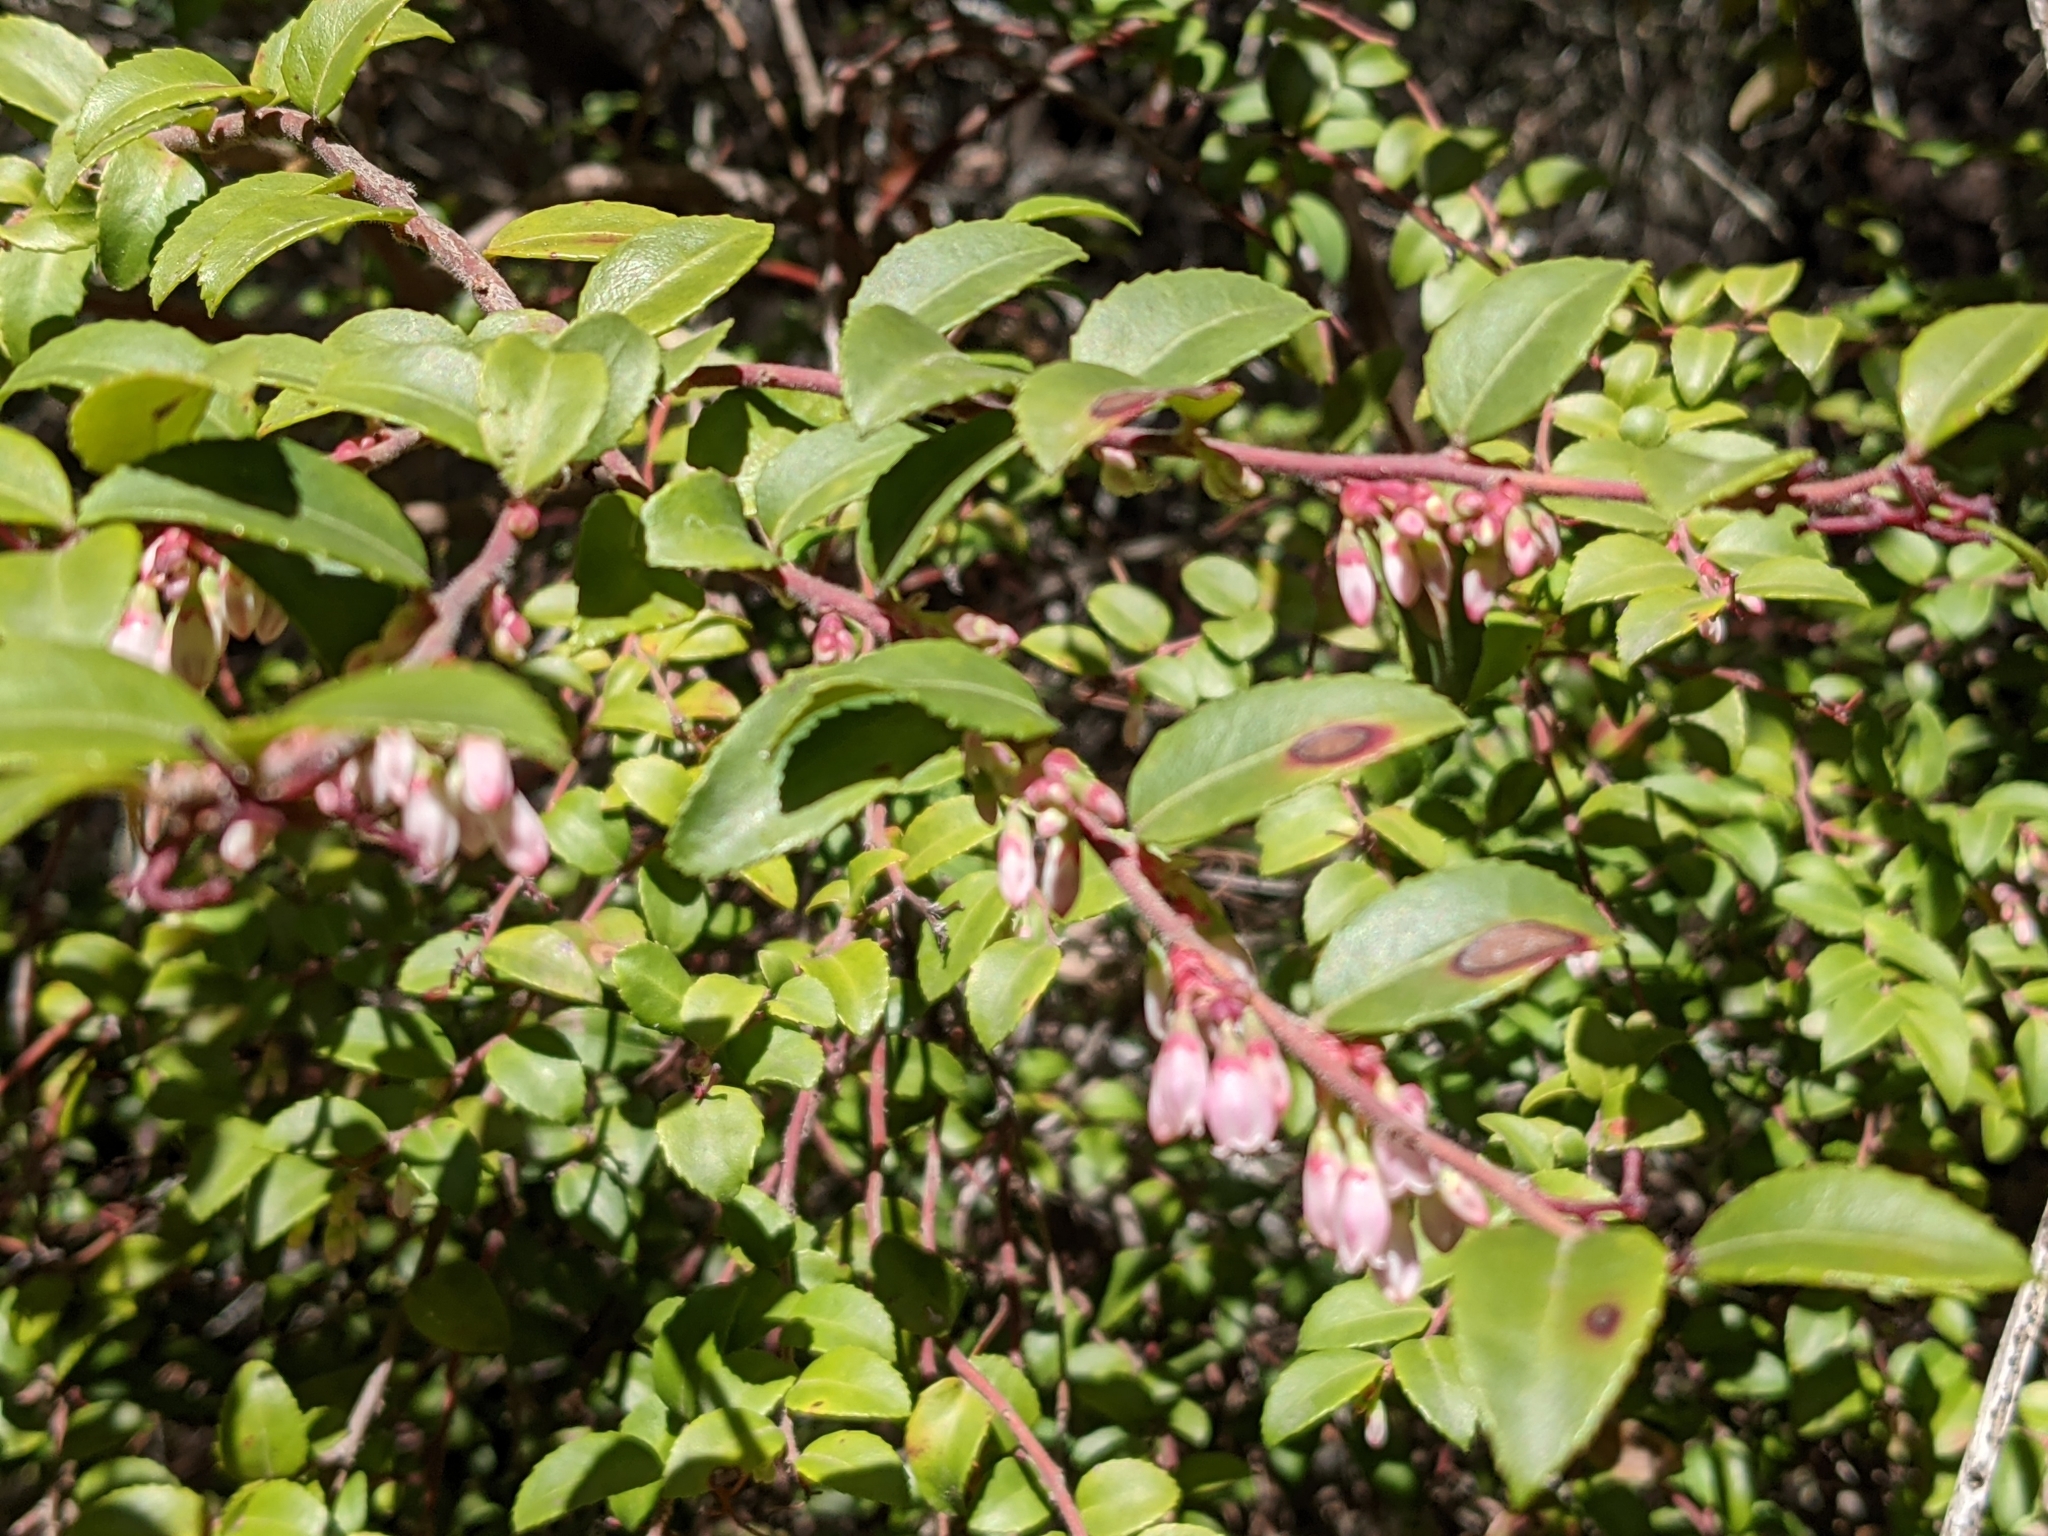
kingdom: Plantae
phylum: Tracheophyta
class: Magnoliopsida
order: Ericales
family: Ericaceae
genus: Vaccinium
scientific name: Vaccinium ovatum
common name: California-huckleberry
